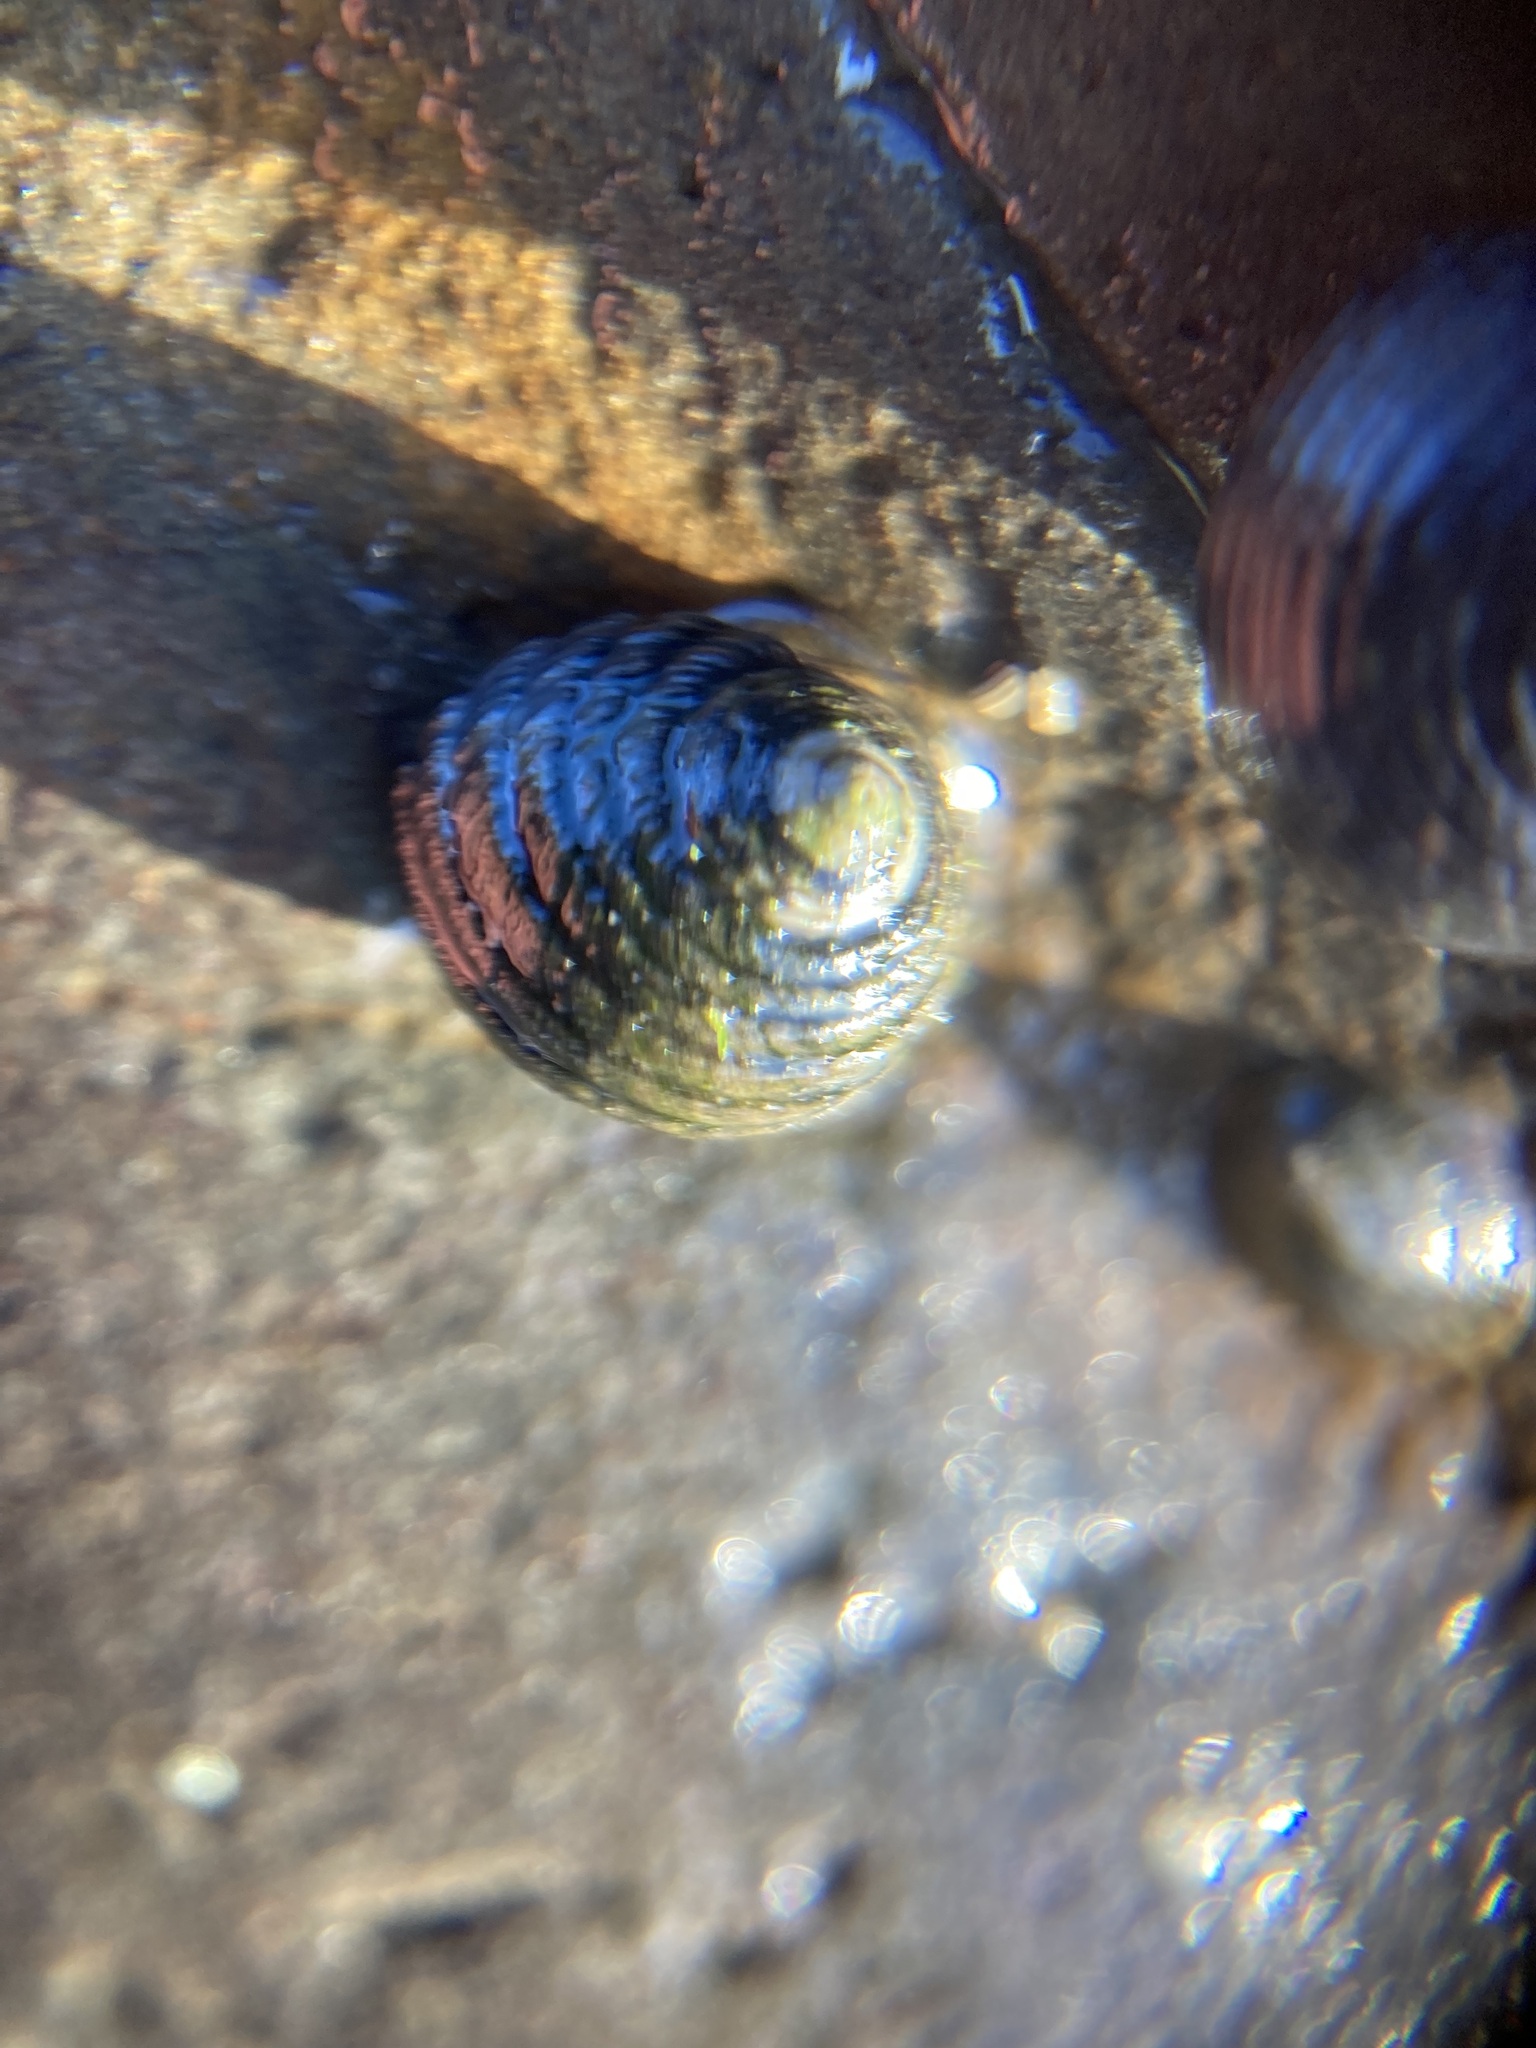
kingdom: Animalia
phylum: Mollusca
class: Gastropoda
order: Trochida
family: Trochidae
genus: Diloma
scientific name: Diloma aethiops
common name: Scorched monodont
